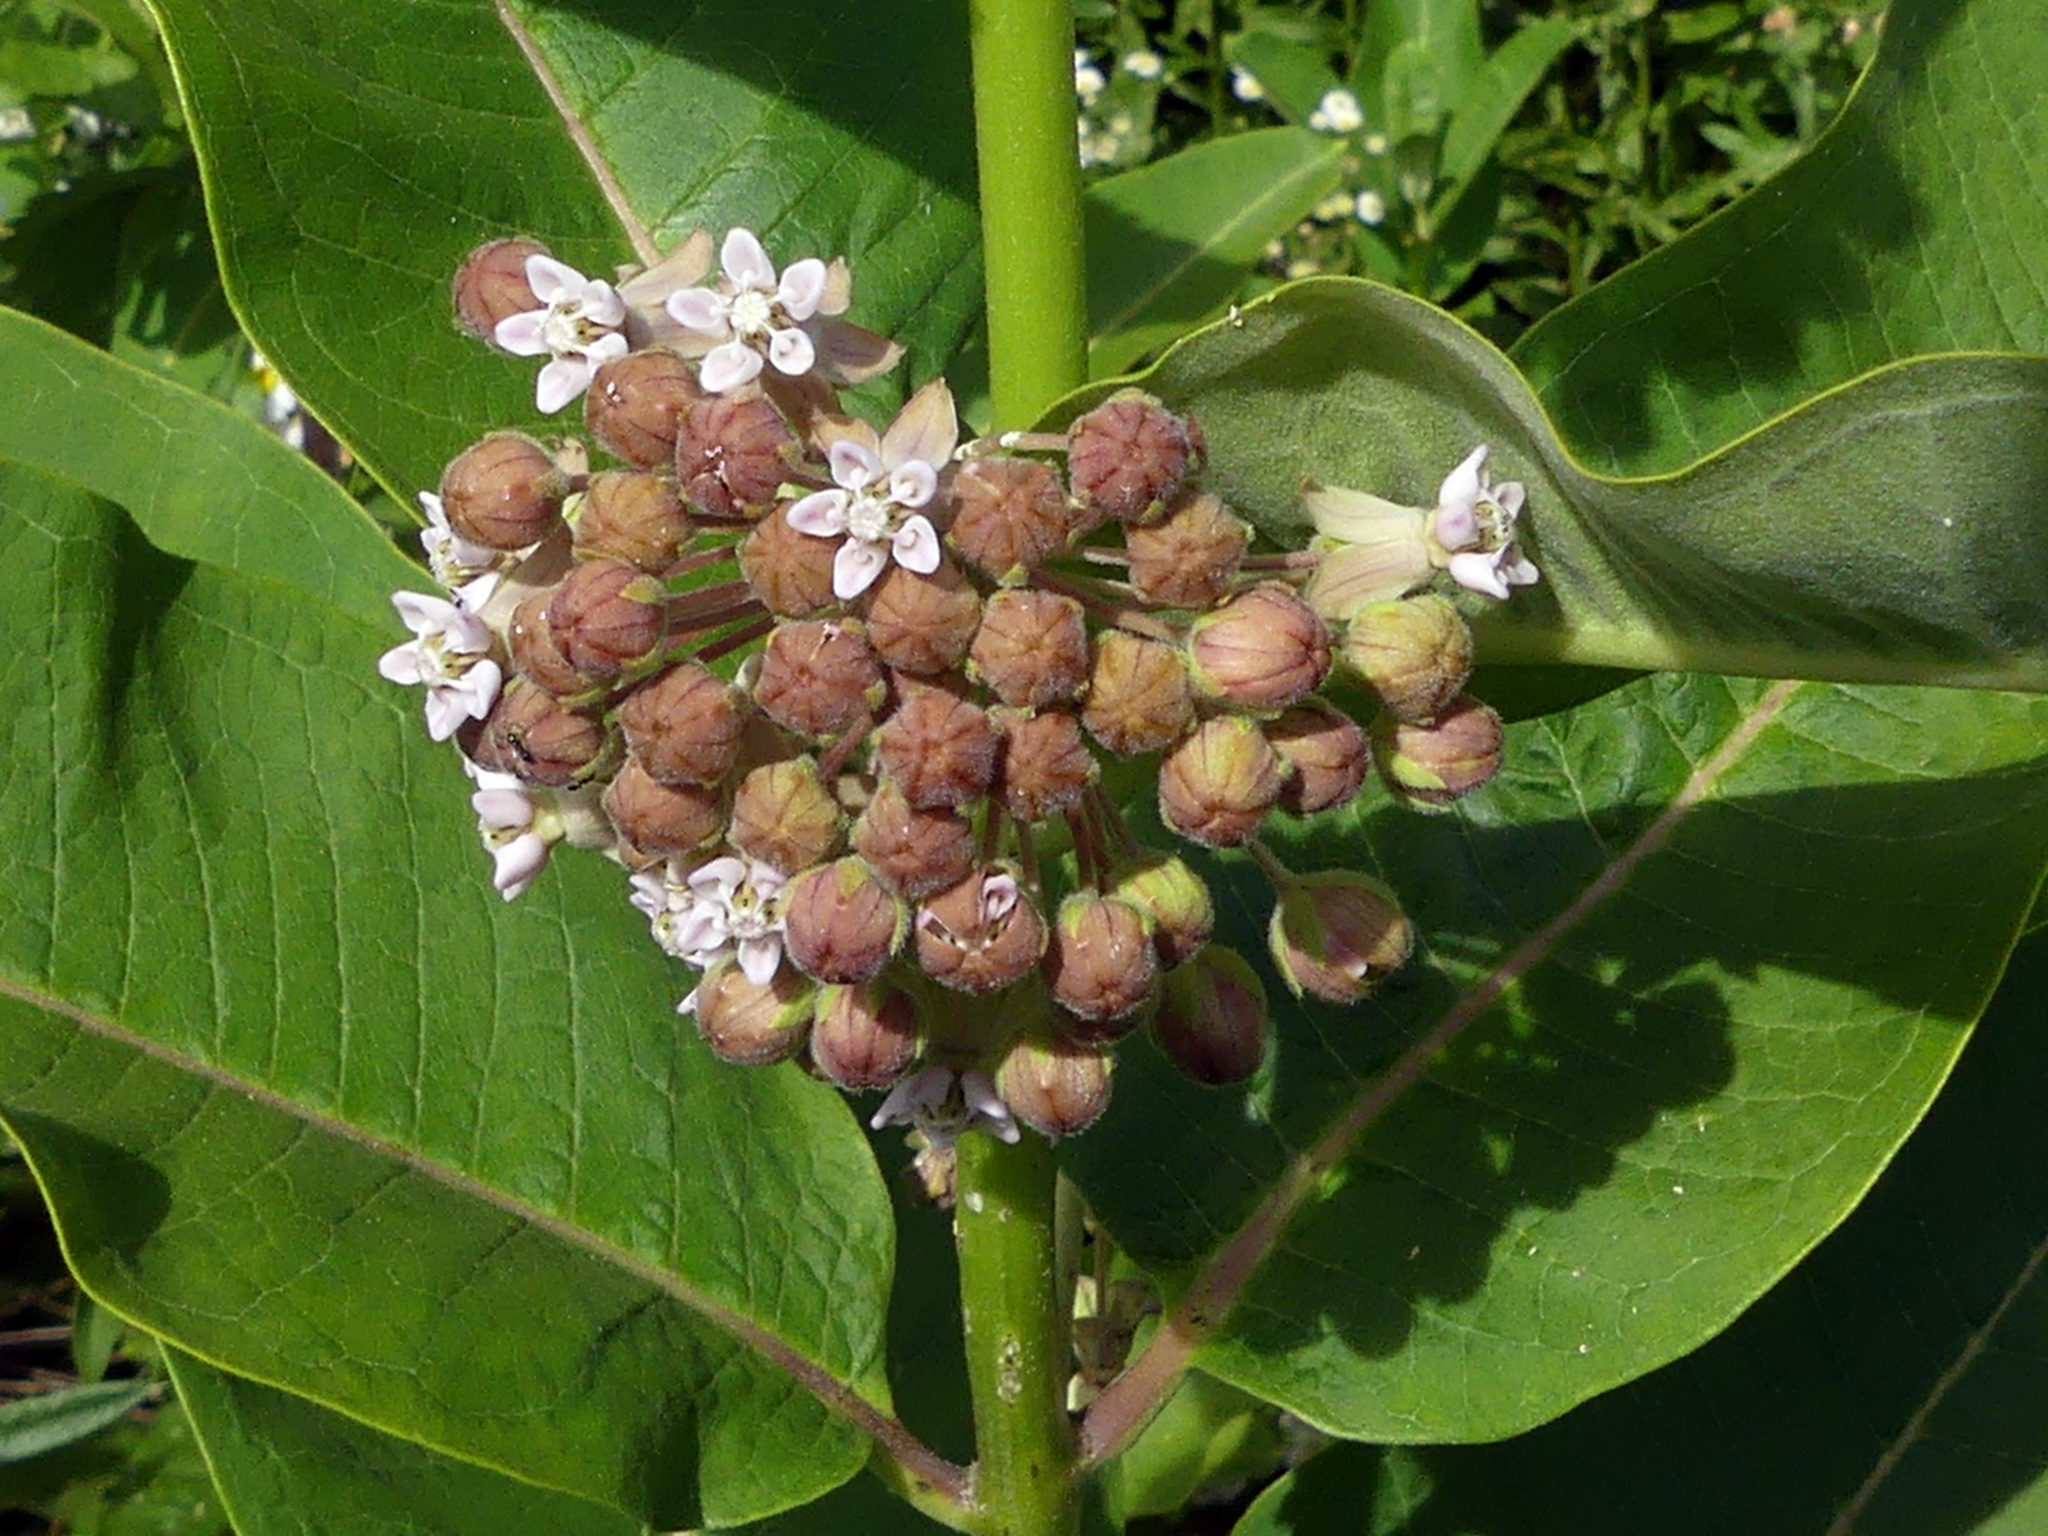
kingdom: Plantae
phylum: Tracheophyta
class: Magnoliopsida
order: Gentianales
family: Apocynaceae
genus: Asclepias
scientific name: Asclepias syriaca
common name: Common milkweed
